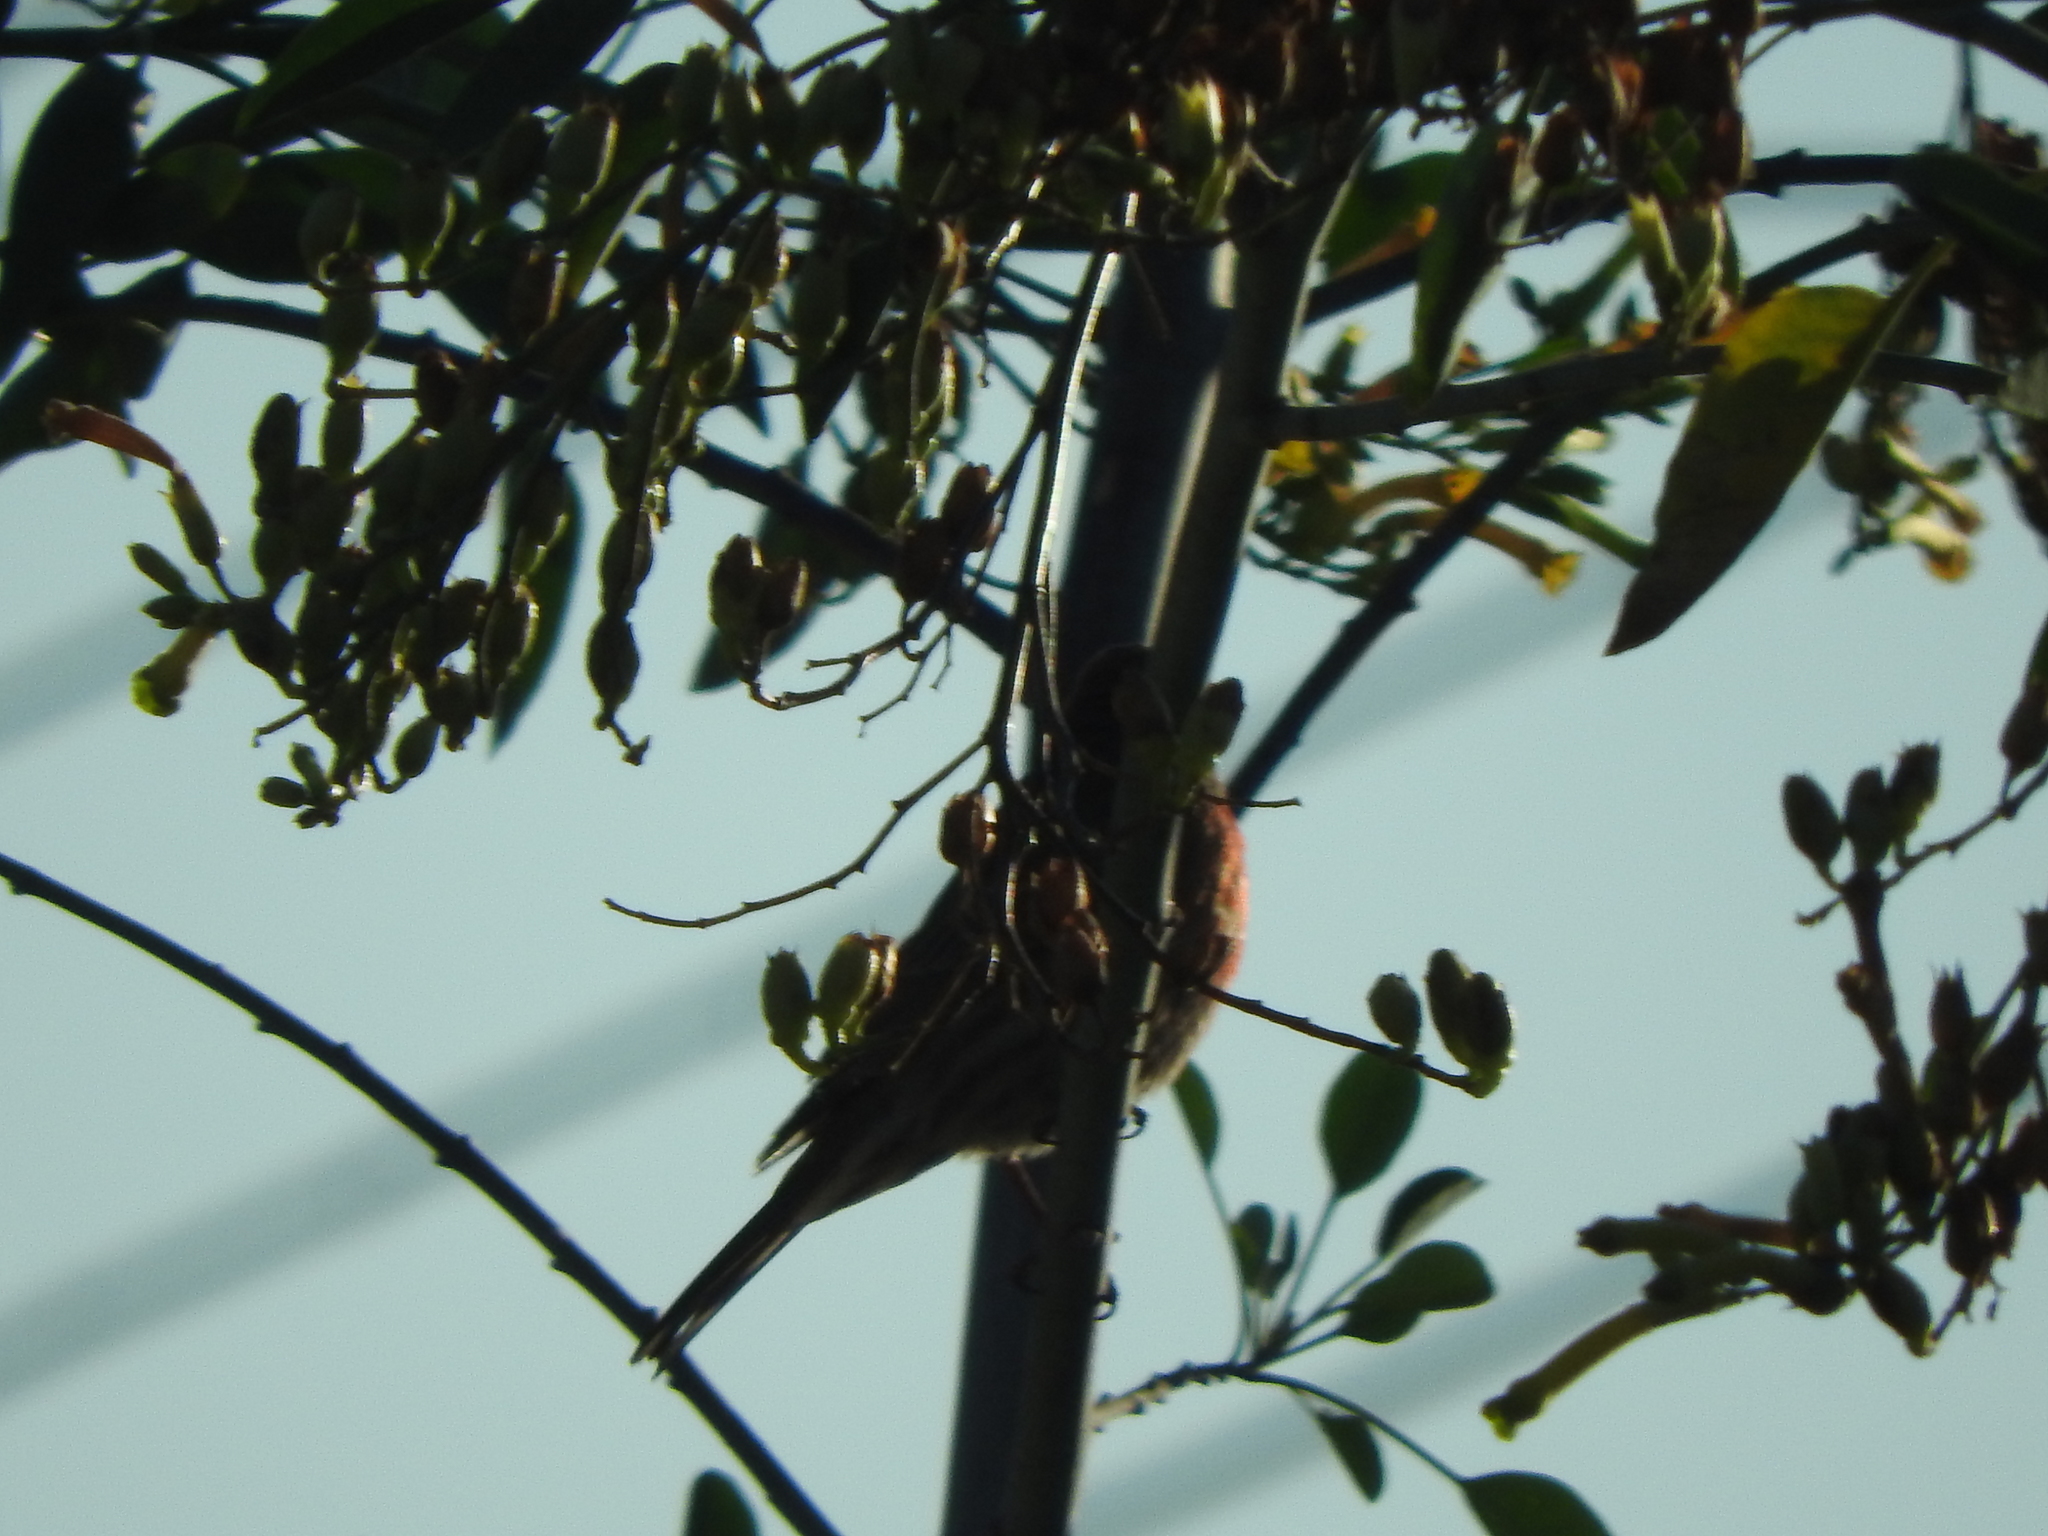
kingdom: Animalia
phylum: Chordata
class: Aves
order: Passeriformes
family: Fringillidae
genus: Haemorhous
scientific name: Haemorhous mexicanus
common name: House finch
